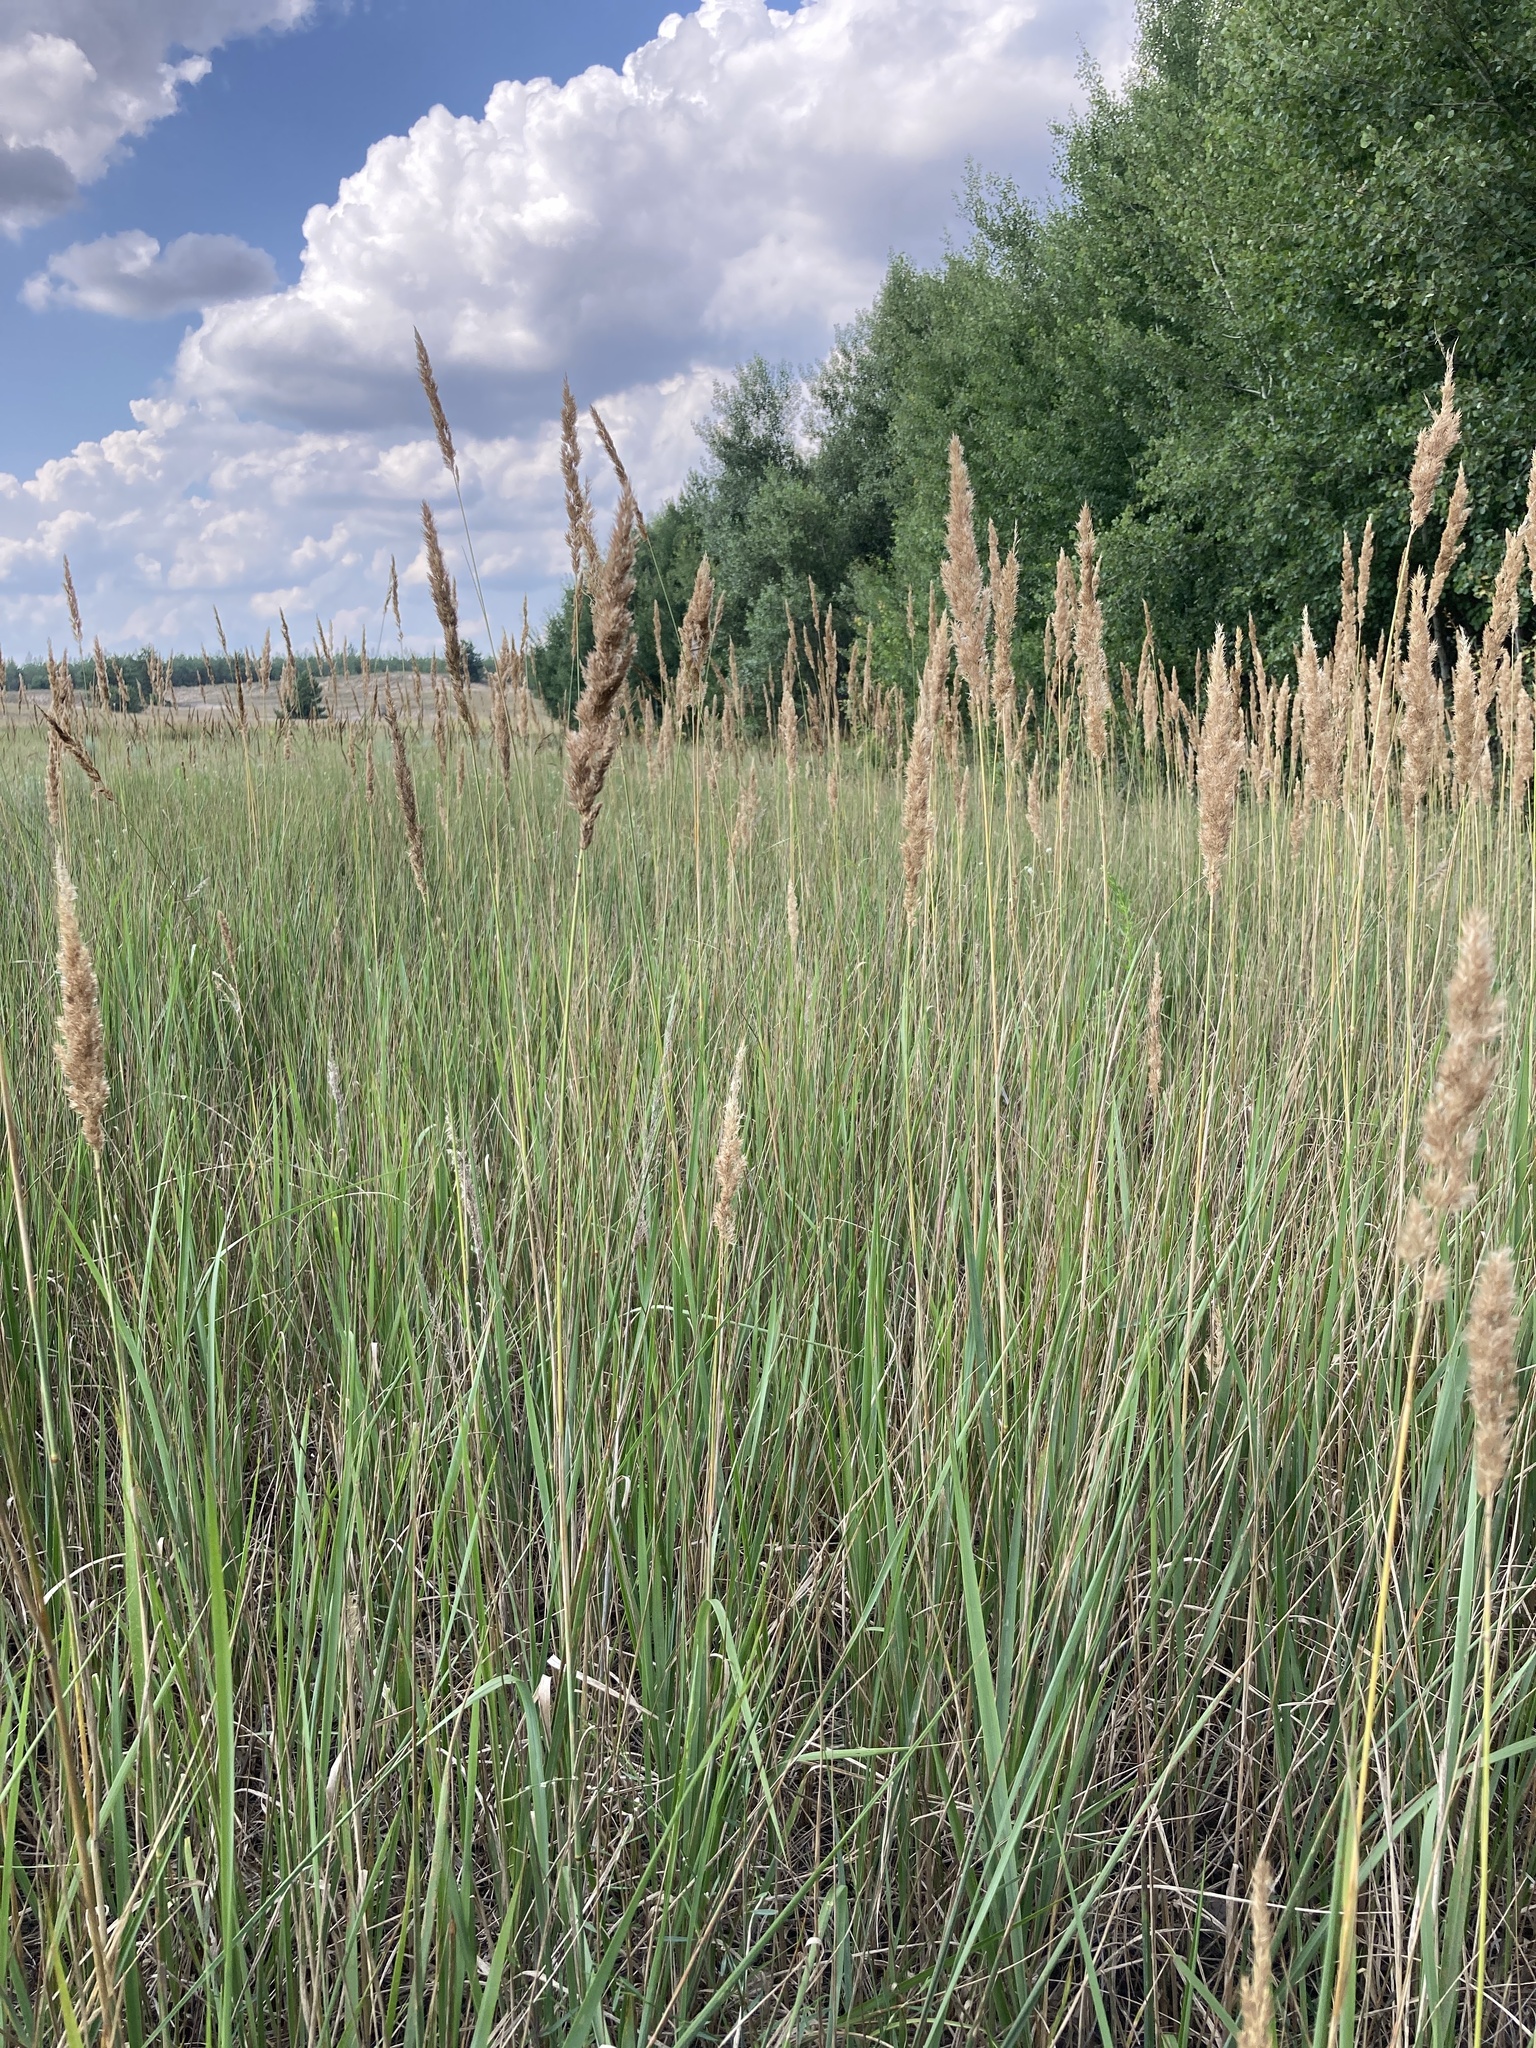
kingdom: Plantae
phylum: Tracheophyta
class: Liliopsida
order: Poales
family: Poaceae
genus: Calamagrostis
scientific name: Calamagrostis epigejos
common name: Wood small-reed
